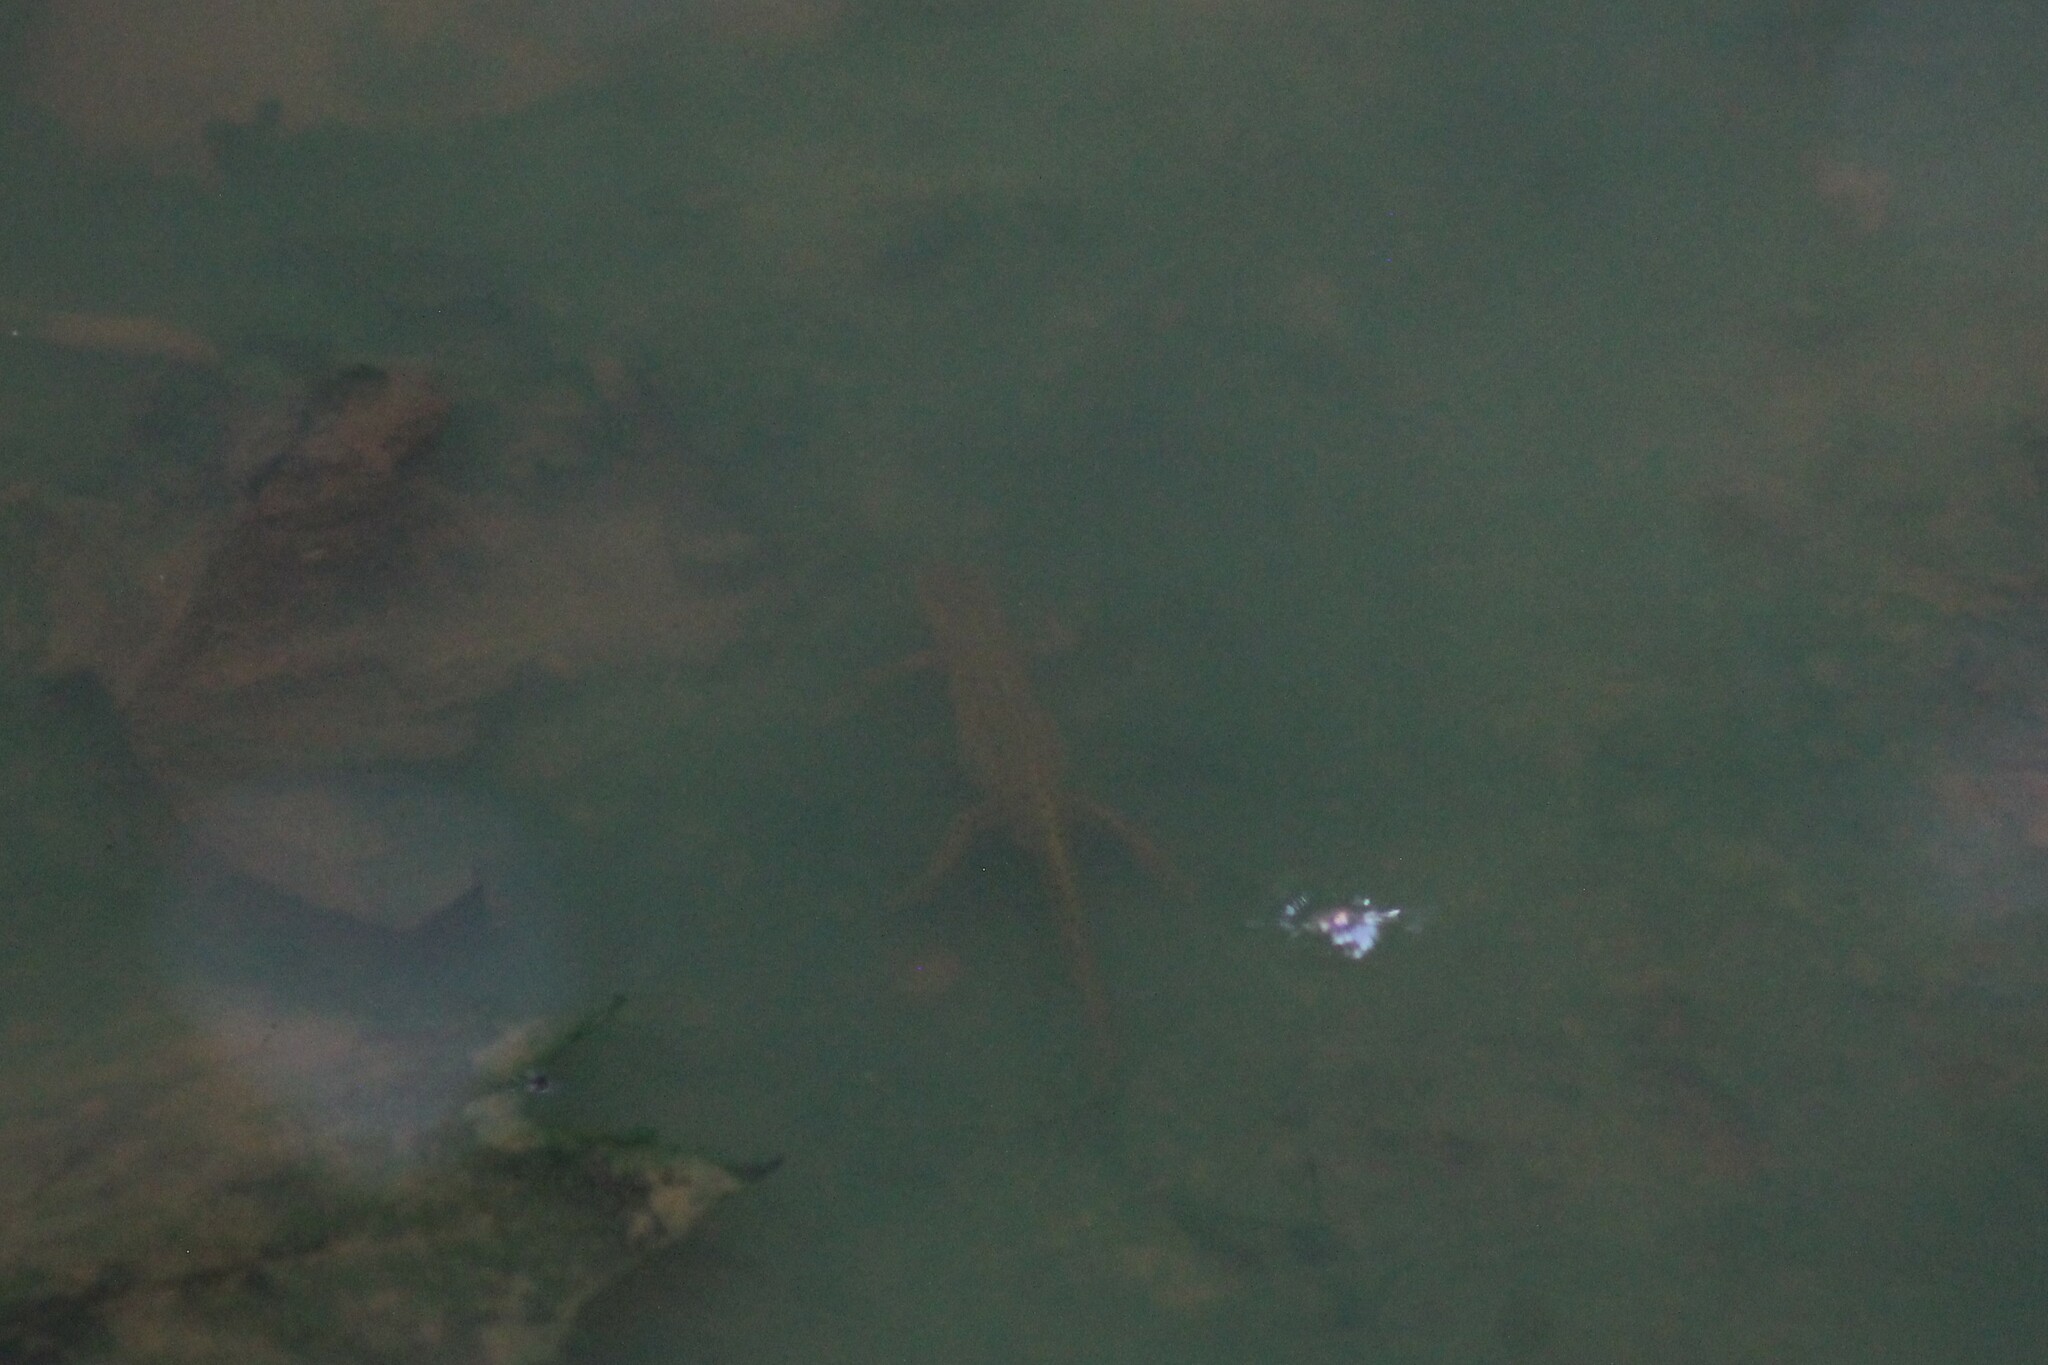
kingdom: Animalia
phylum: Chordata
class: Amphibia
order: Caudata
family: Salamandridae
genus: Notophthalmus
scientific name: Notophthalmus viridescens
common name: Eastern newt
